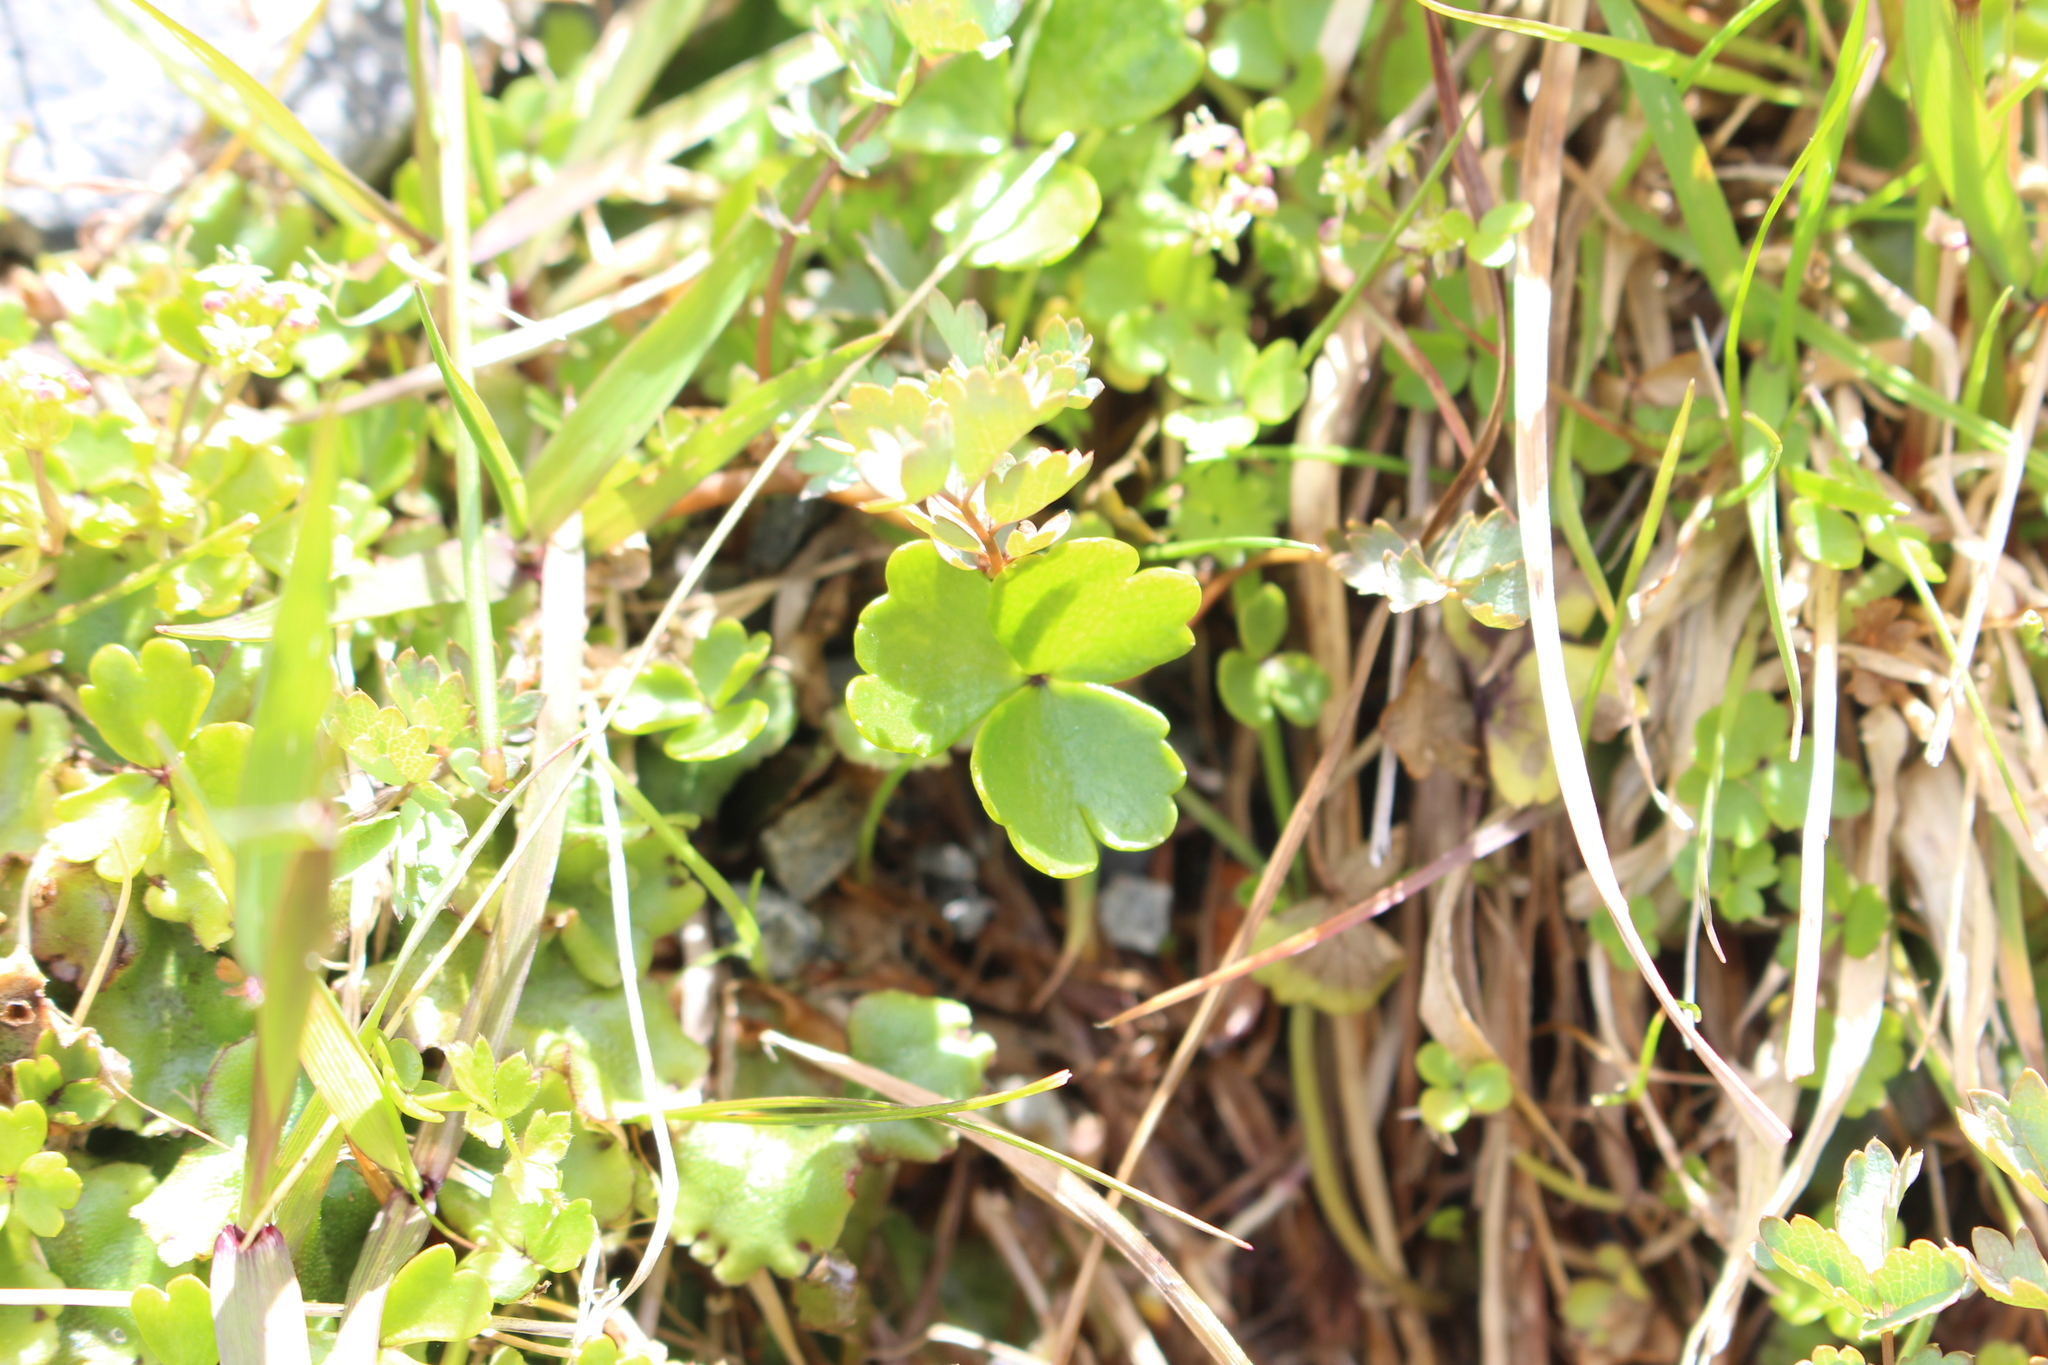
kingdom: Plantae
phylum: Tracheophyta
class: Magnoliopsida
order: Apiales
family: Apiaceae
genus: Azorella
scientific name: Azorella pallida
